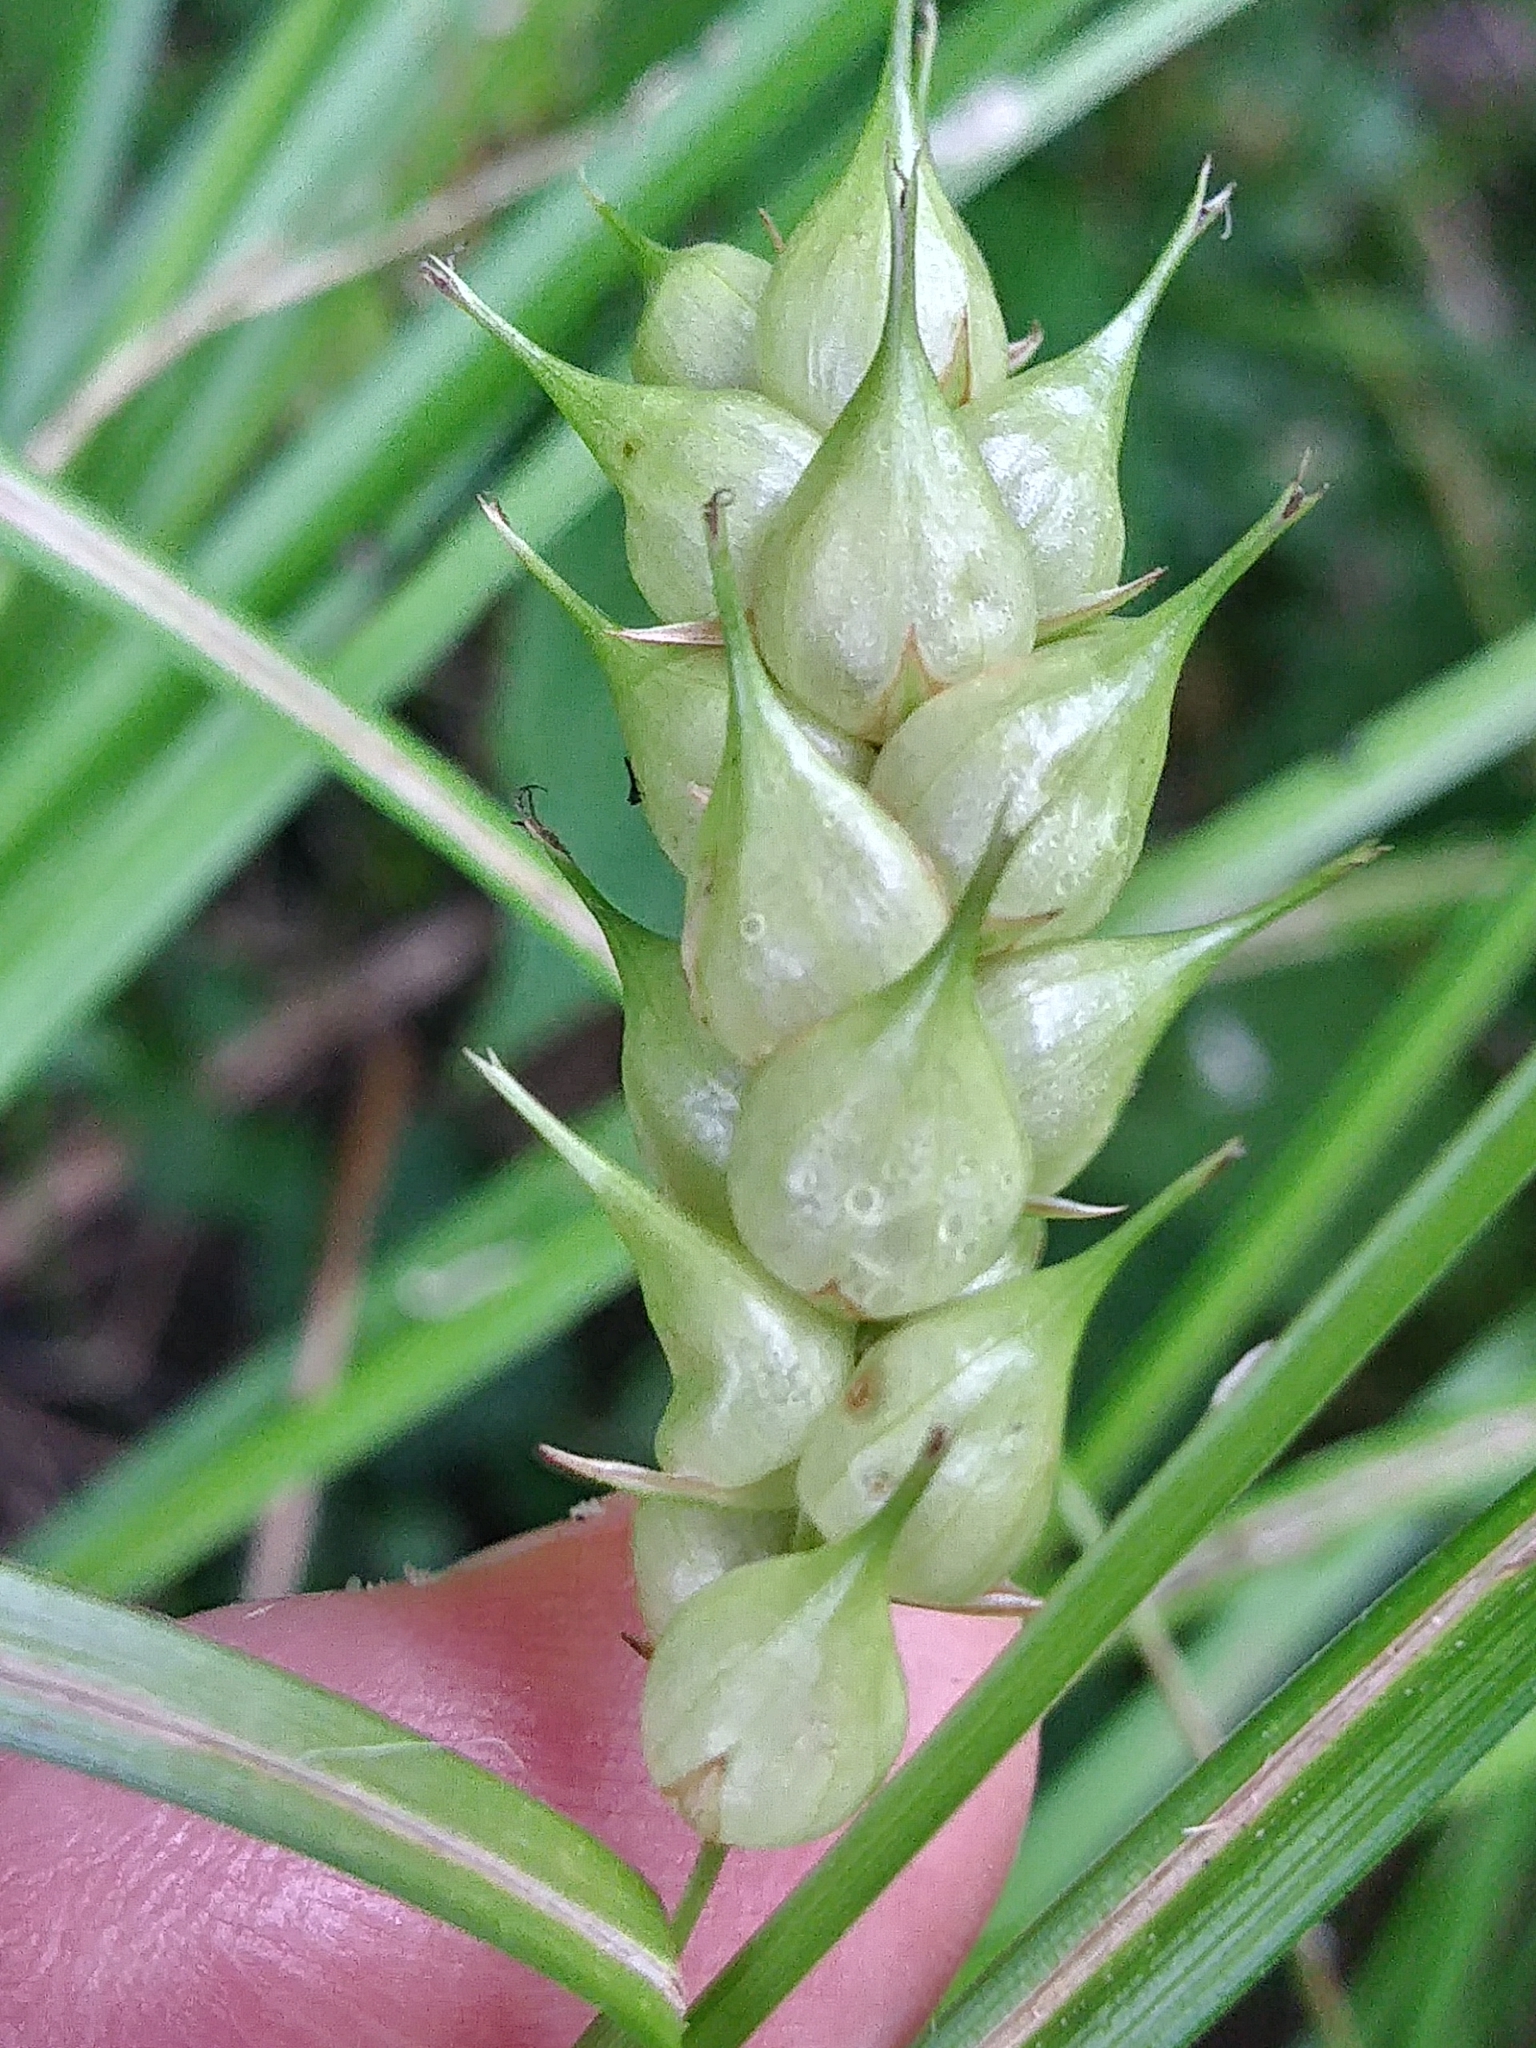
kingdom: Plantae
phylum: Tracheophyta
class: Liliopsida
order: Poales
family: Cyperaceae
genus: Carex
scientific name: Carex tuckermanii
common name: Tuckerman's sedge
